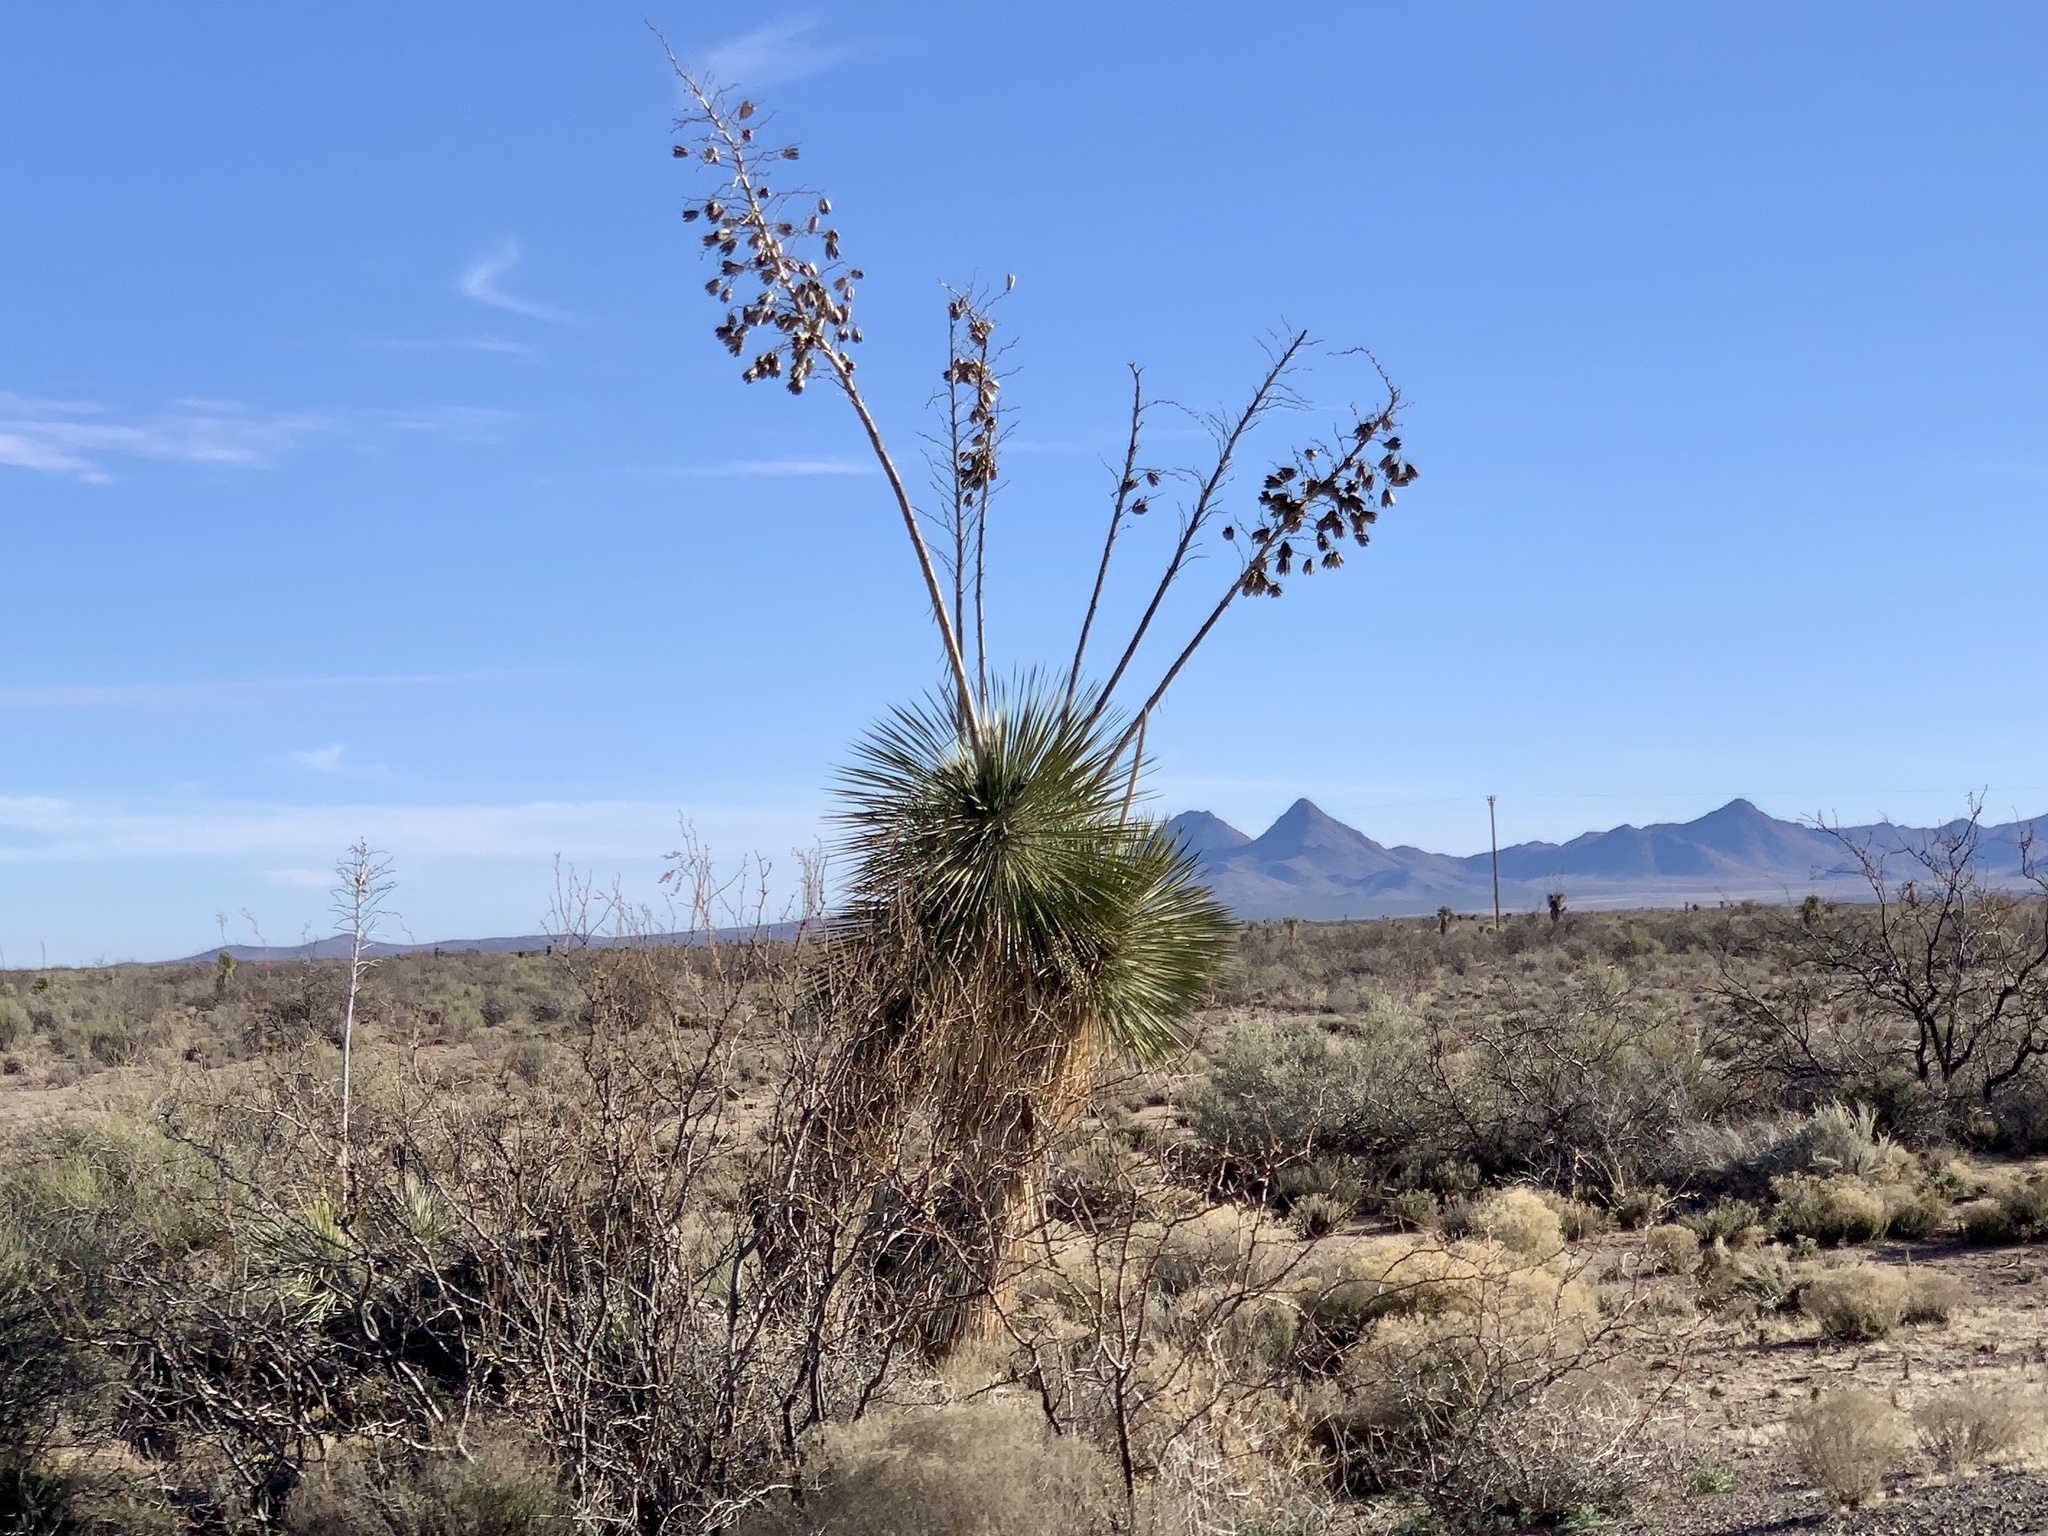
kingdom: Plantae
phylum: Tracheophyta
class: Liliopsida
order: Asparagales
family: Asparagaceae
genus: Yucca
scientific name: Yucca elata
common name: Palmella
